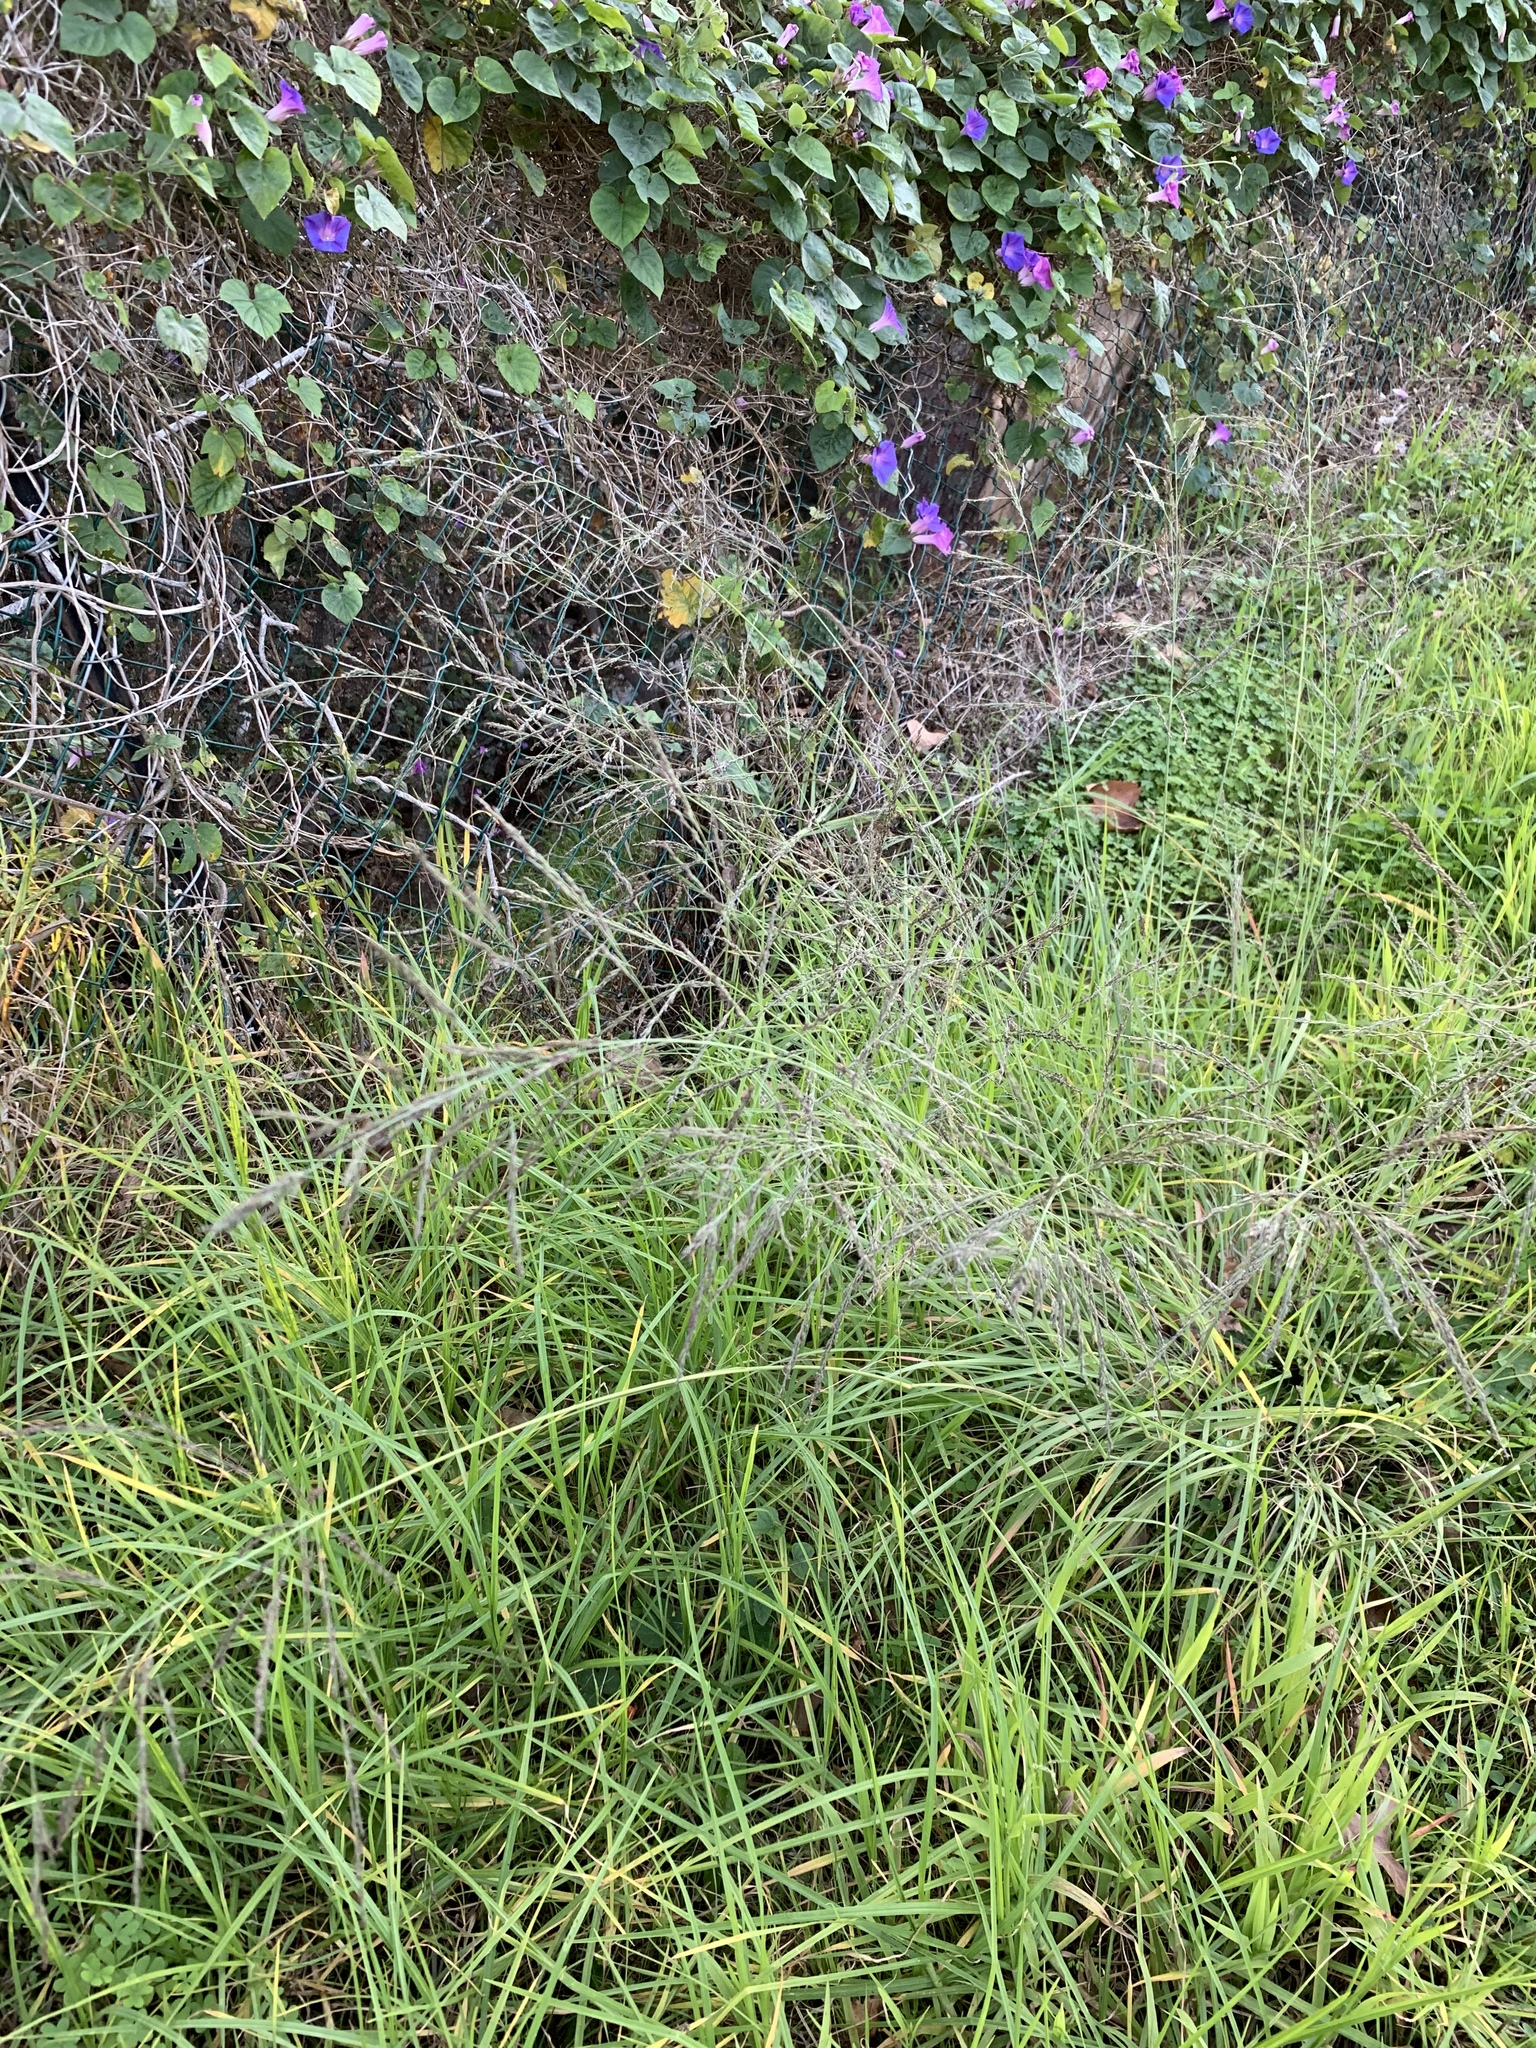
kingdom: Plantae
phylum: Tracheophyta
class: Liliopsida
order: Poales
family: Poaceae
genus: Eragrostis
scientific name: Eragrostis curvula
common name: African love-grass
